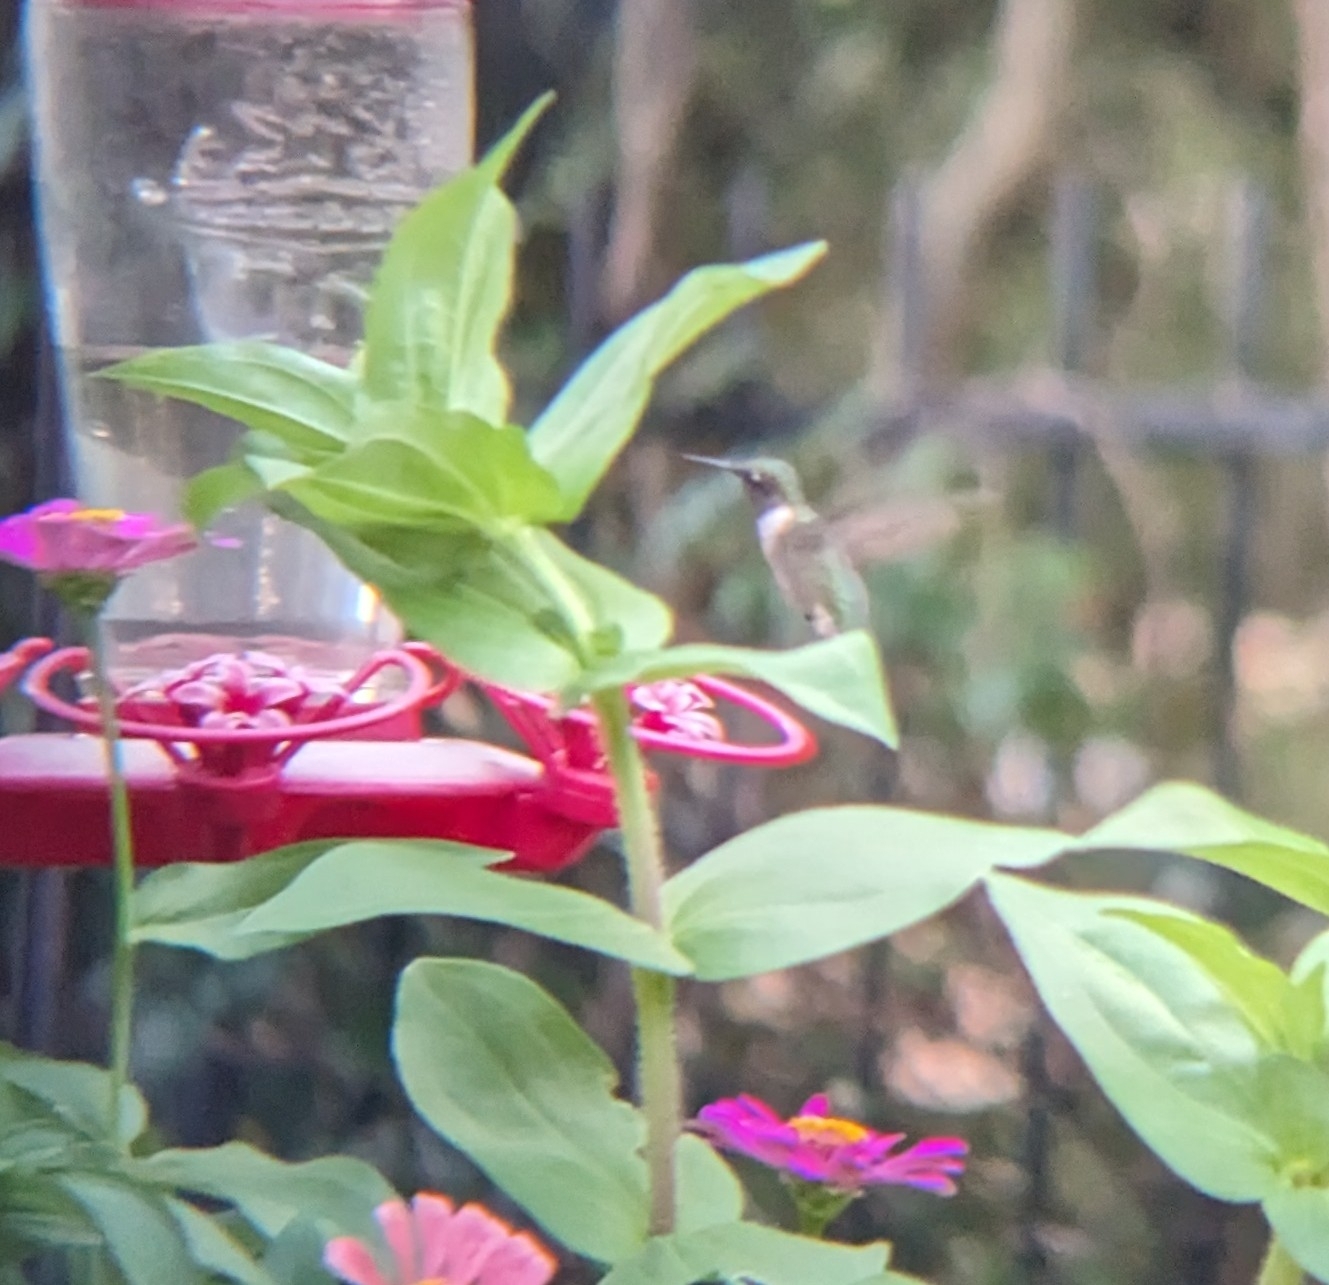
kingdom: Animalia
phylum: Chordata
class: Aves
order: Apodiformes
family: Trochilidae
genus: Archilochus
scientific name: Archilochus colubris
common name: Ruby-throated hummingbird
